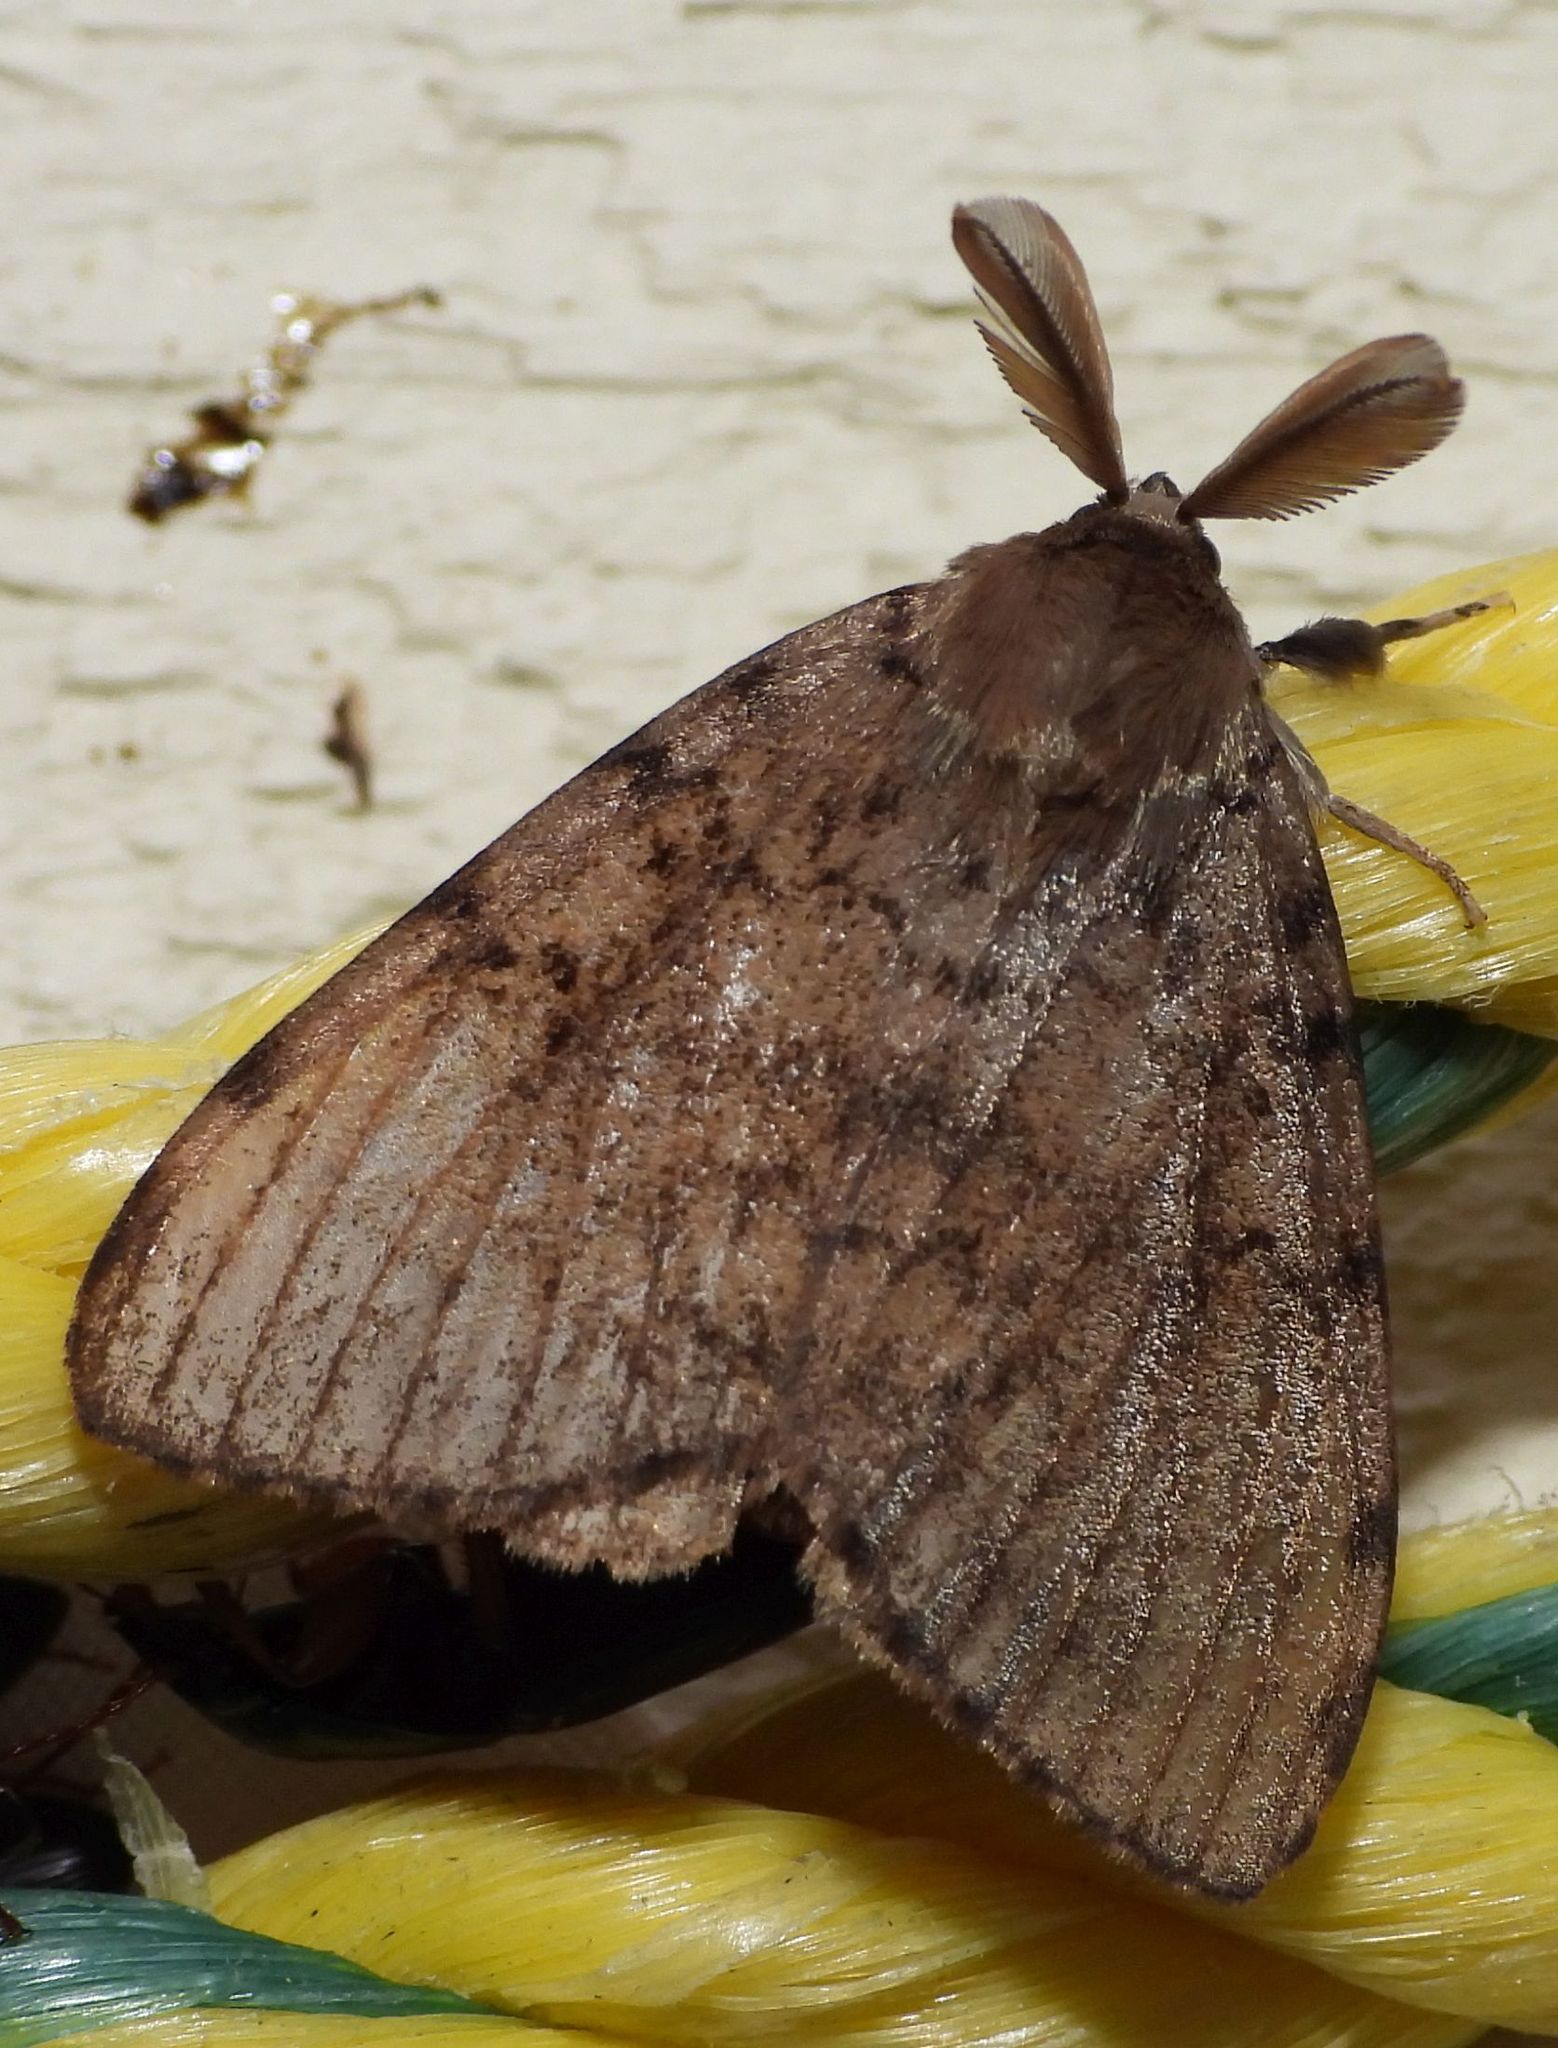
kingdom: Animalia
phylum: Arthropoda
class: Insecta
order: Lepidoptera
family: Erebidae
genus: Lymantria
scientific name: Lymantria dispar
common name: Gypsy moth
